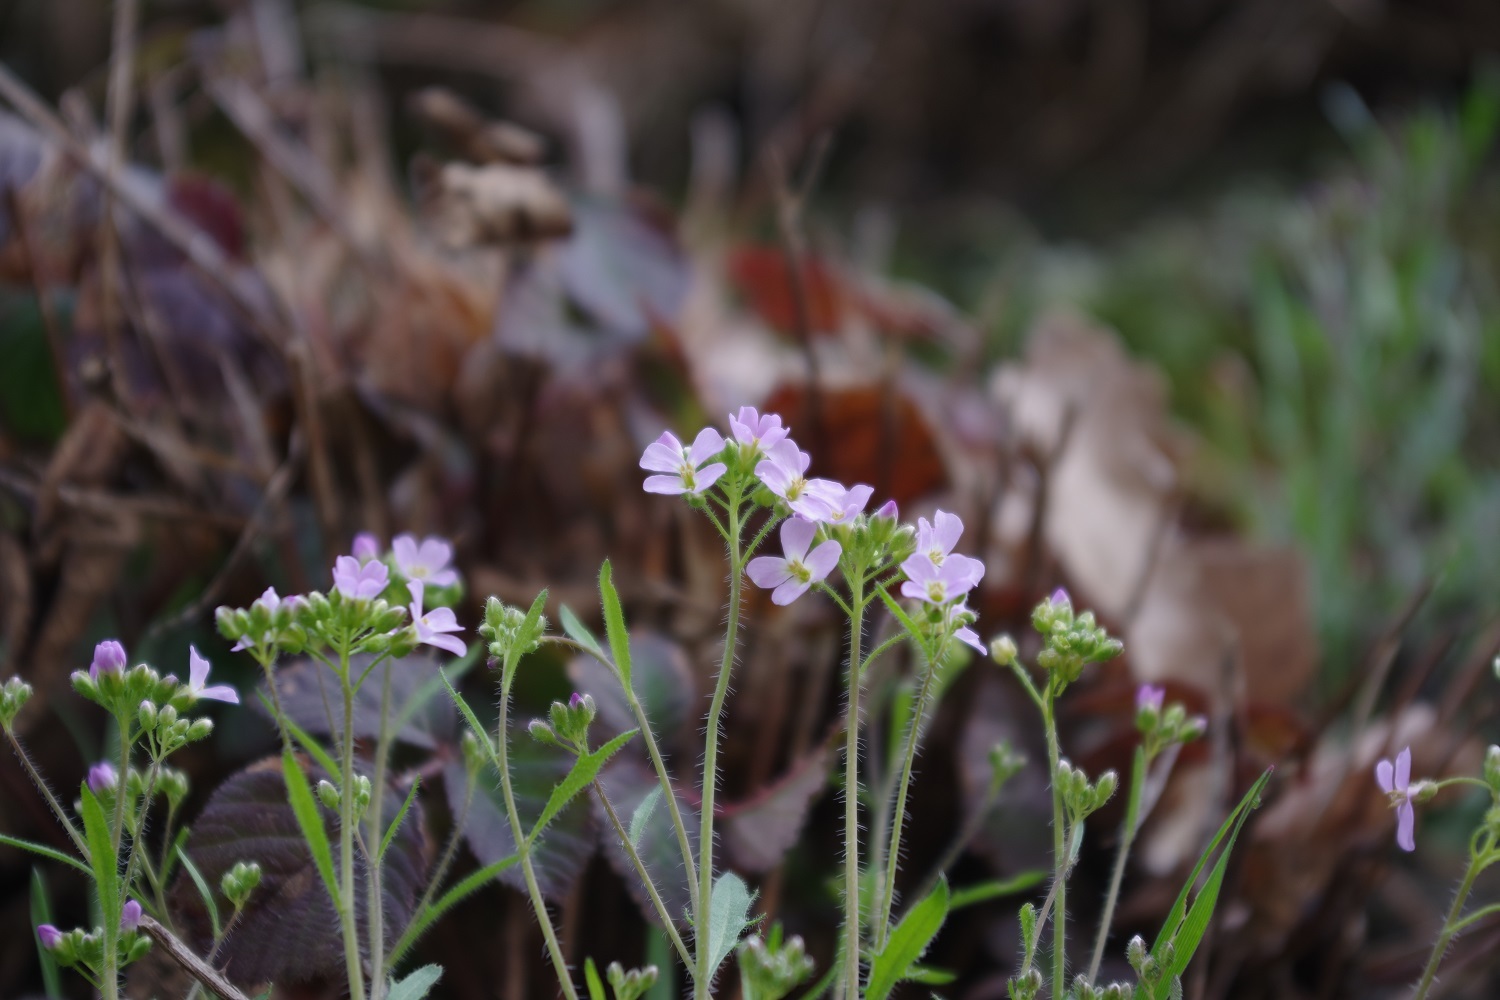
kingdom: Plantae
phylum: Tracheophyta
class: Magnoliopsida
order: Brassicales
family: Brassicaceae
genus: Arabidopsis
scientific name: Arabidopsis arenosa
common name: Sand rock-cress
